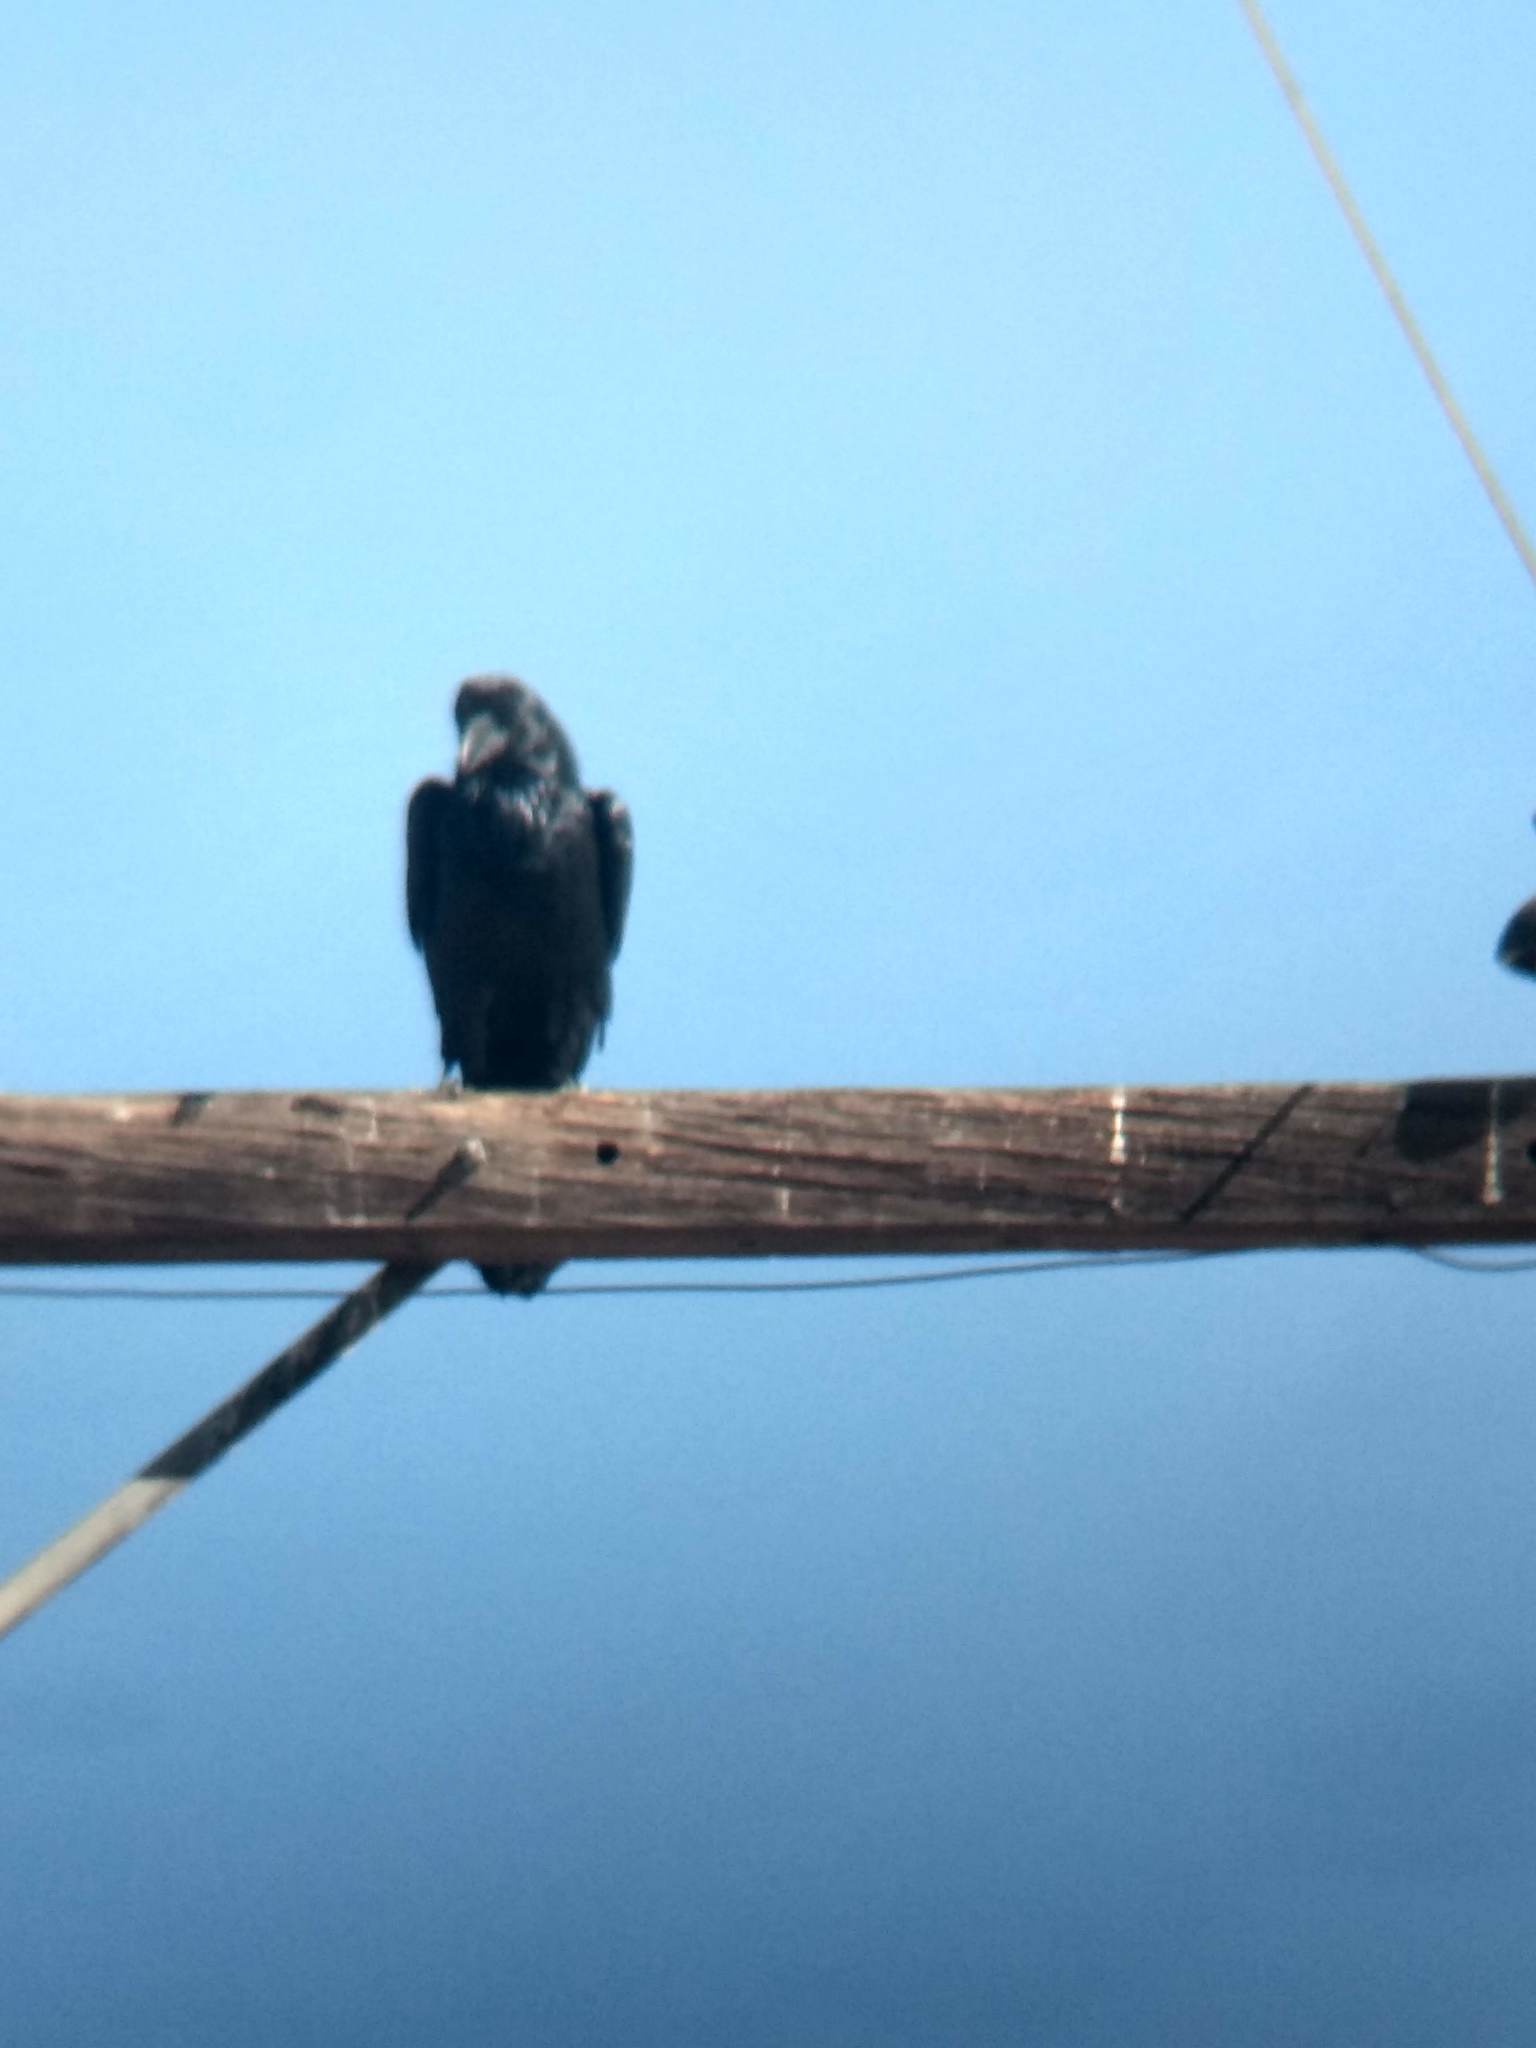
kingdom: Animalia
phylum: Chordata
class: Aves
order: Passeriformes
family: Corvidae
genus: Corvus
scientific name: Corvus corax
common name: Common raven
